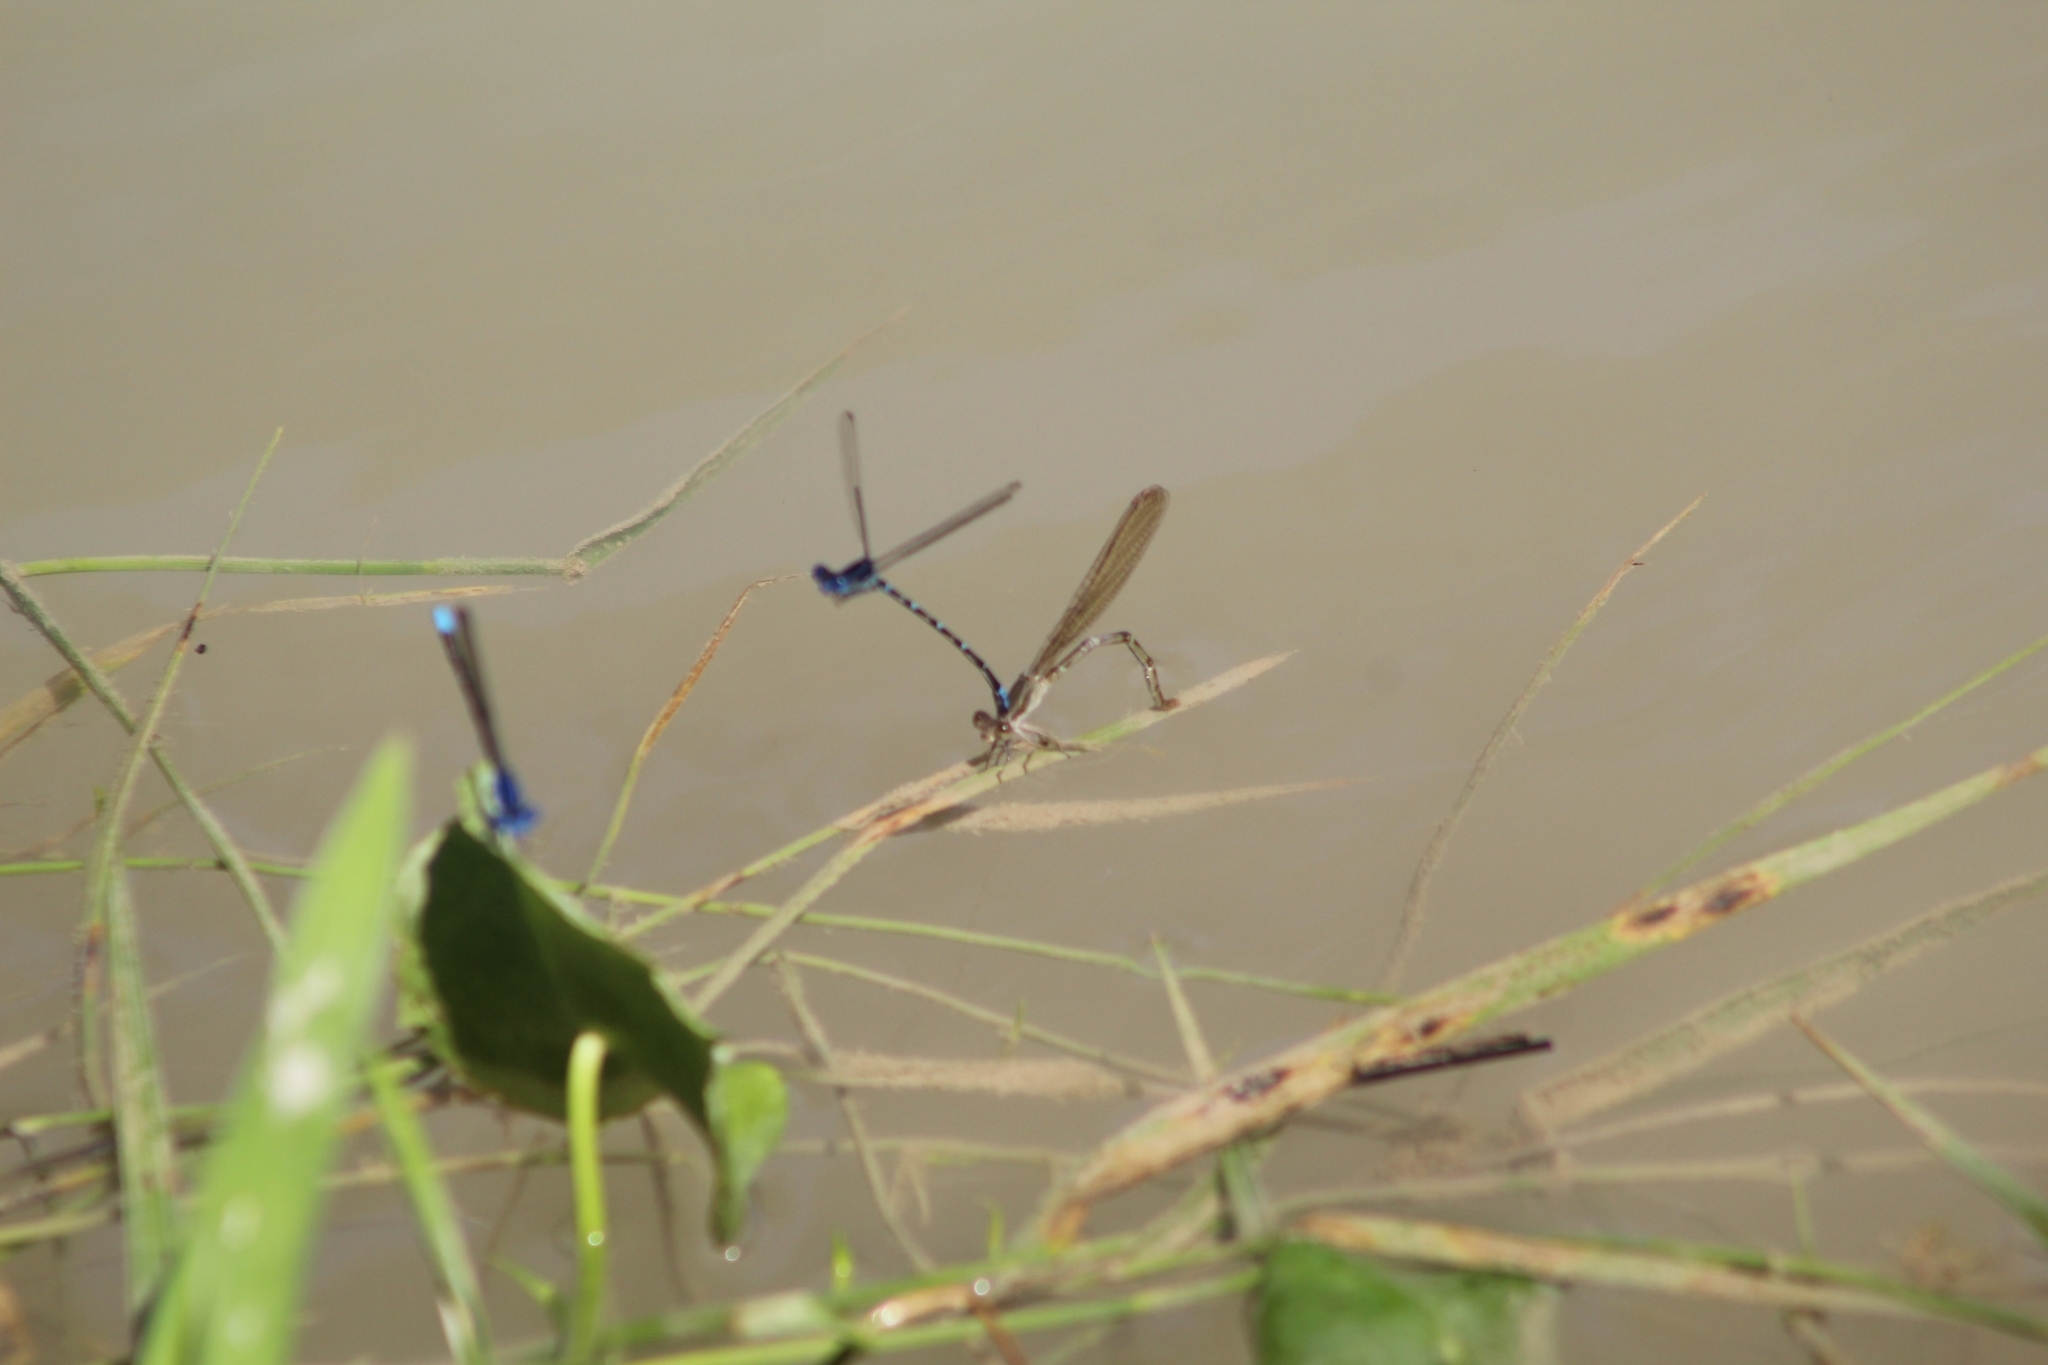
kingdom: Animalia
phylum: Arthropoda
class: Insecta
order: Odonata
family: Coenagrionidae
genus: Argia
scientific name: Argia sedula
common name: Blue-ringed dancer
